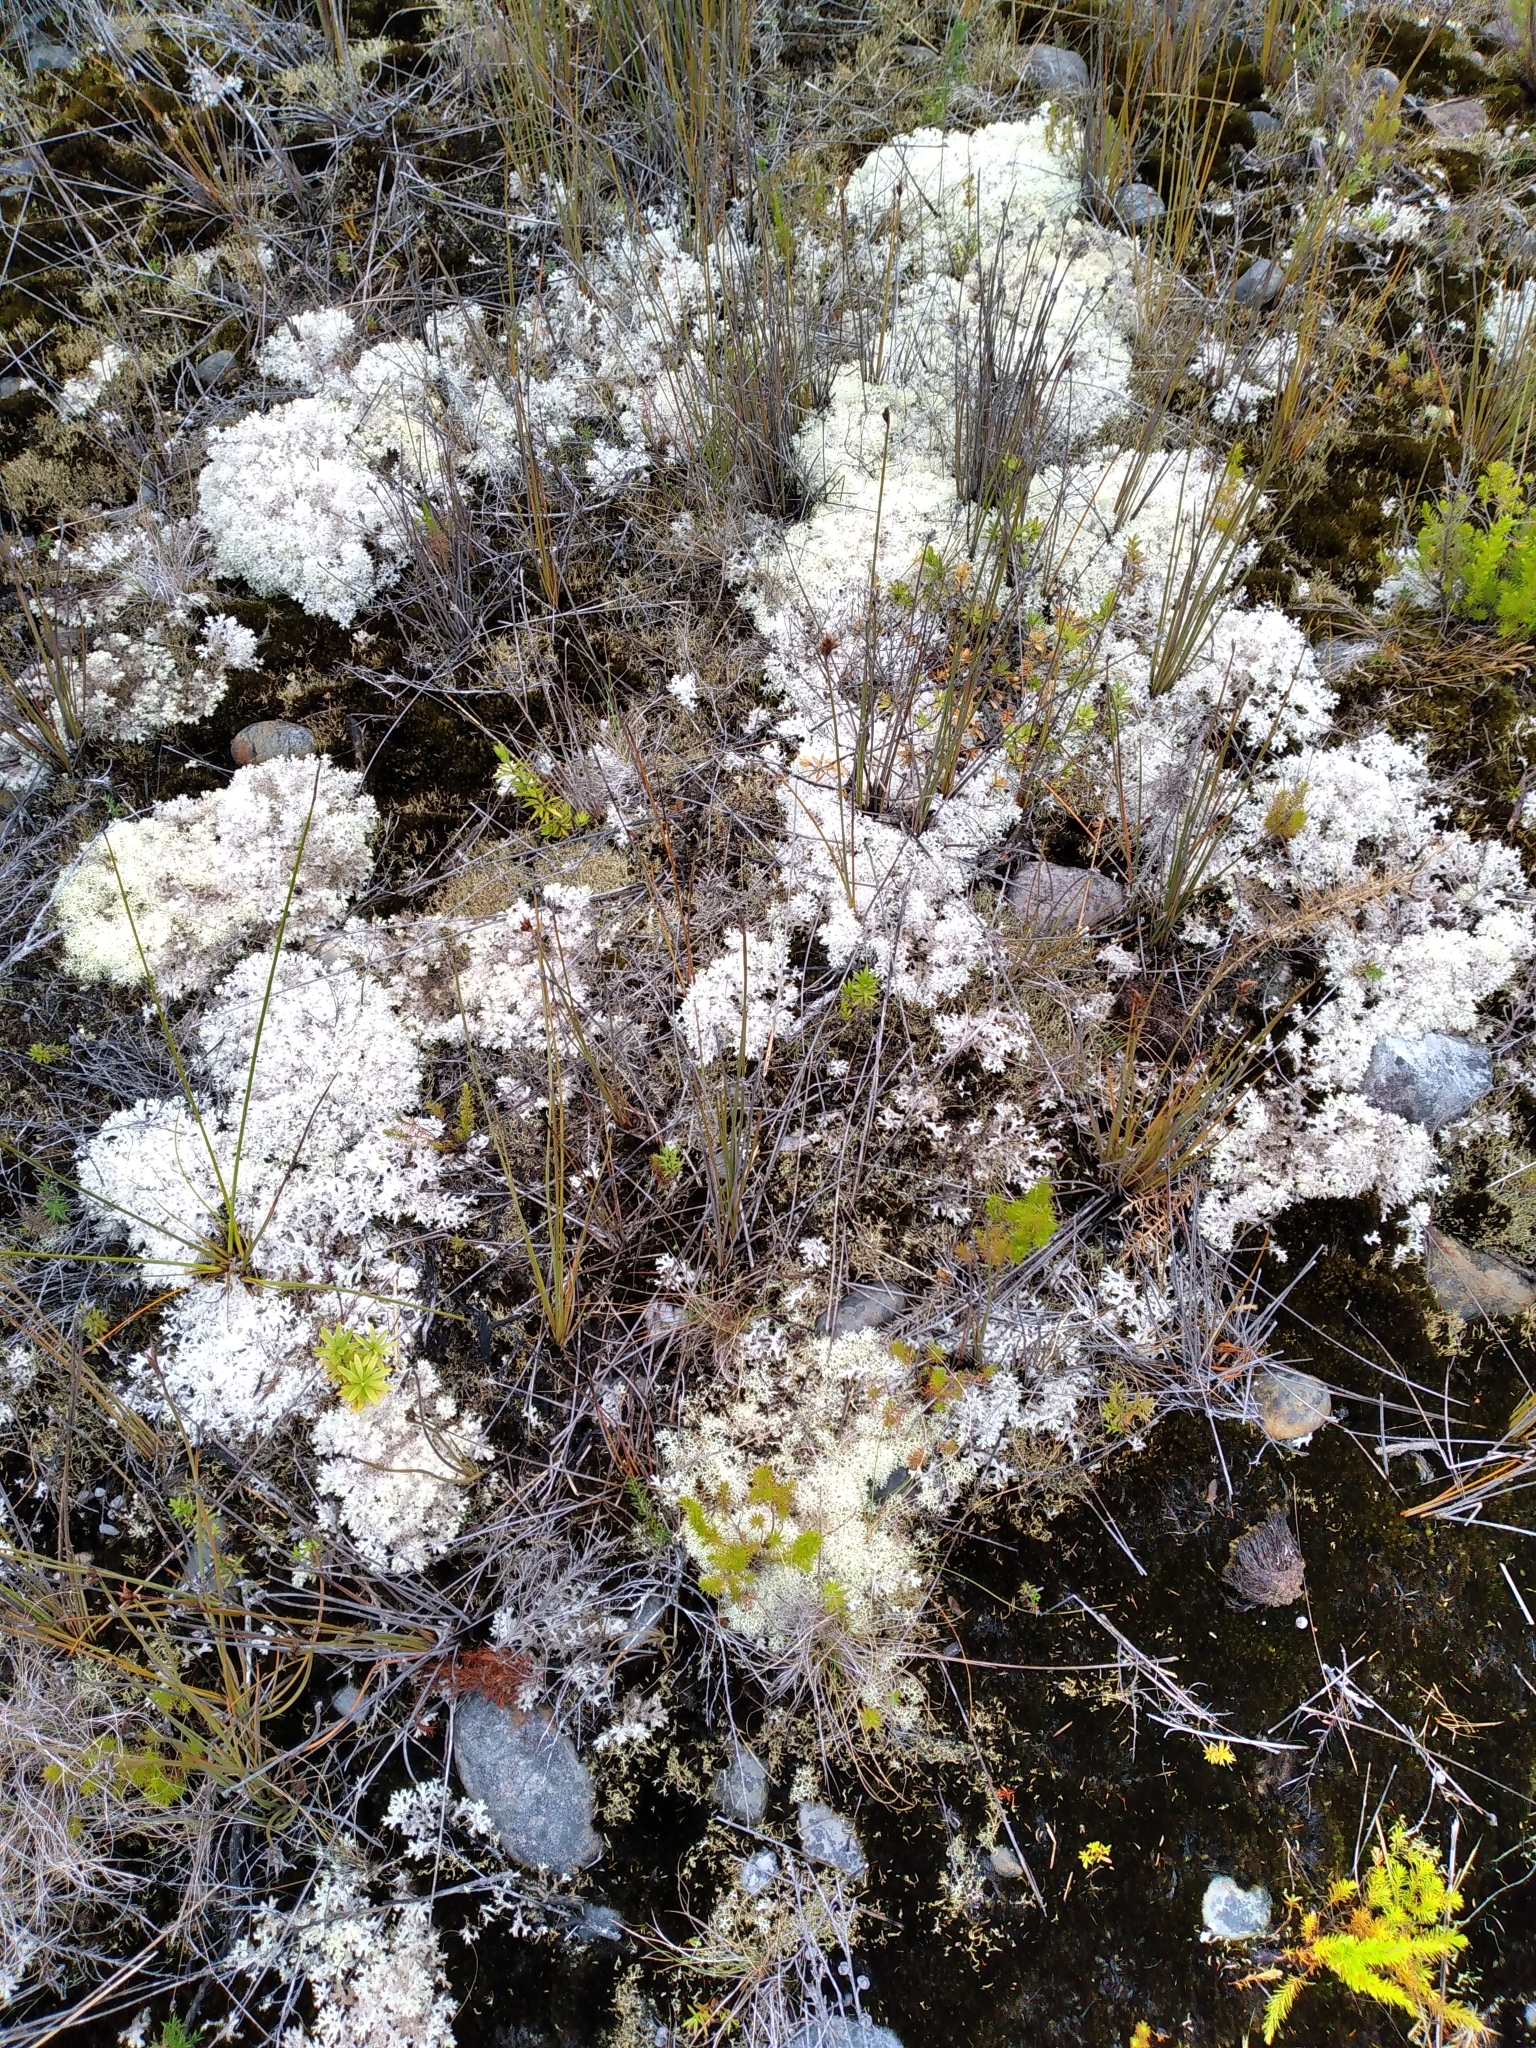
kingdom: Fungi
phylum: Ascomycota
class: Lecanoromycetes
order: Lecanorales
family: Cladoniaceae
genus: Pulchrocladia
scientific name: Pulchrocladia retipora
